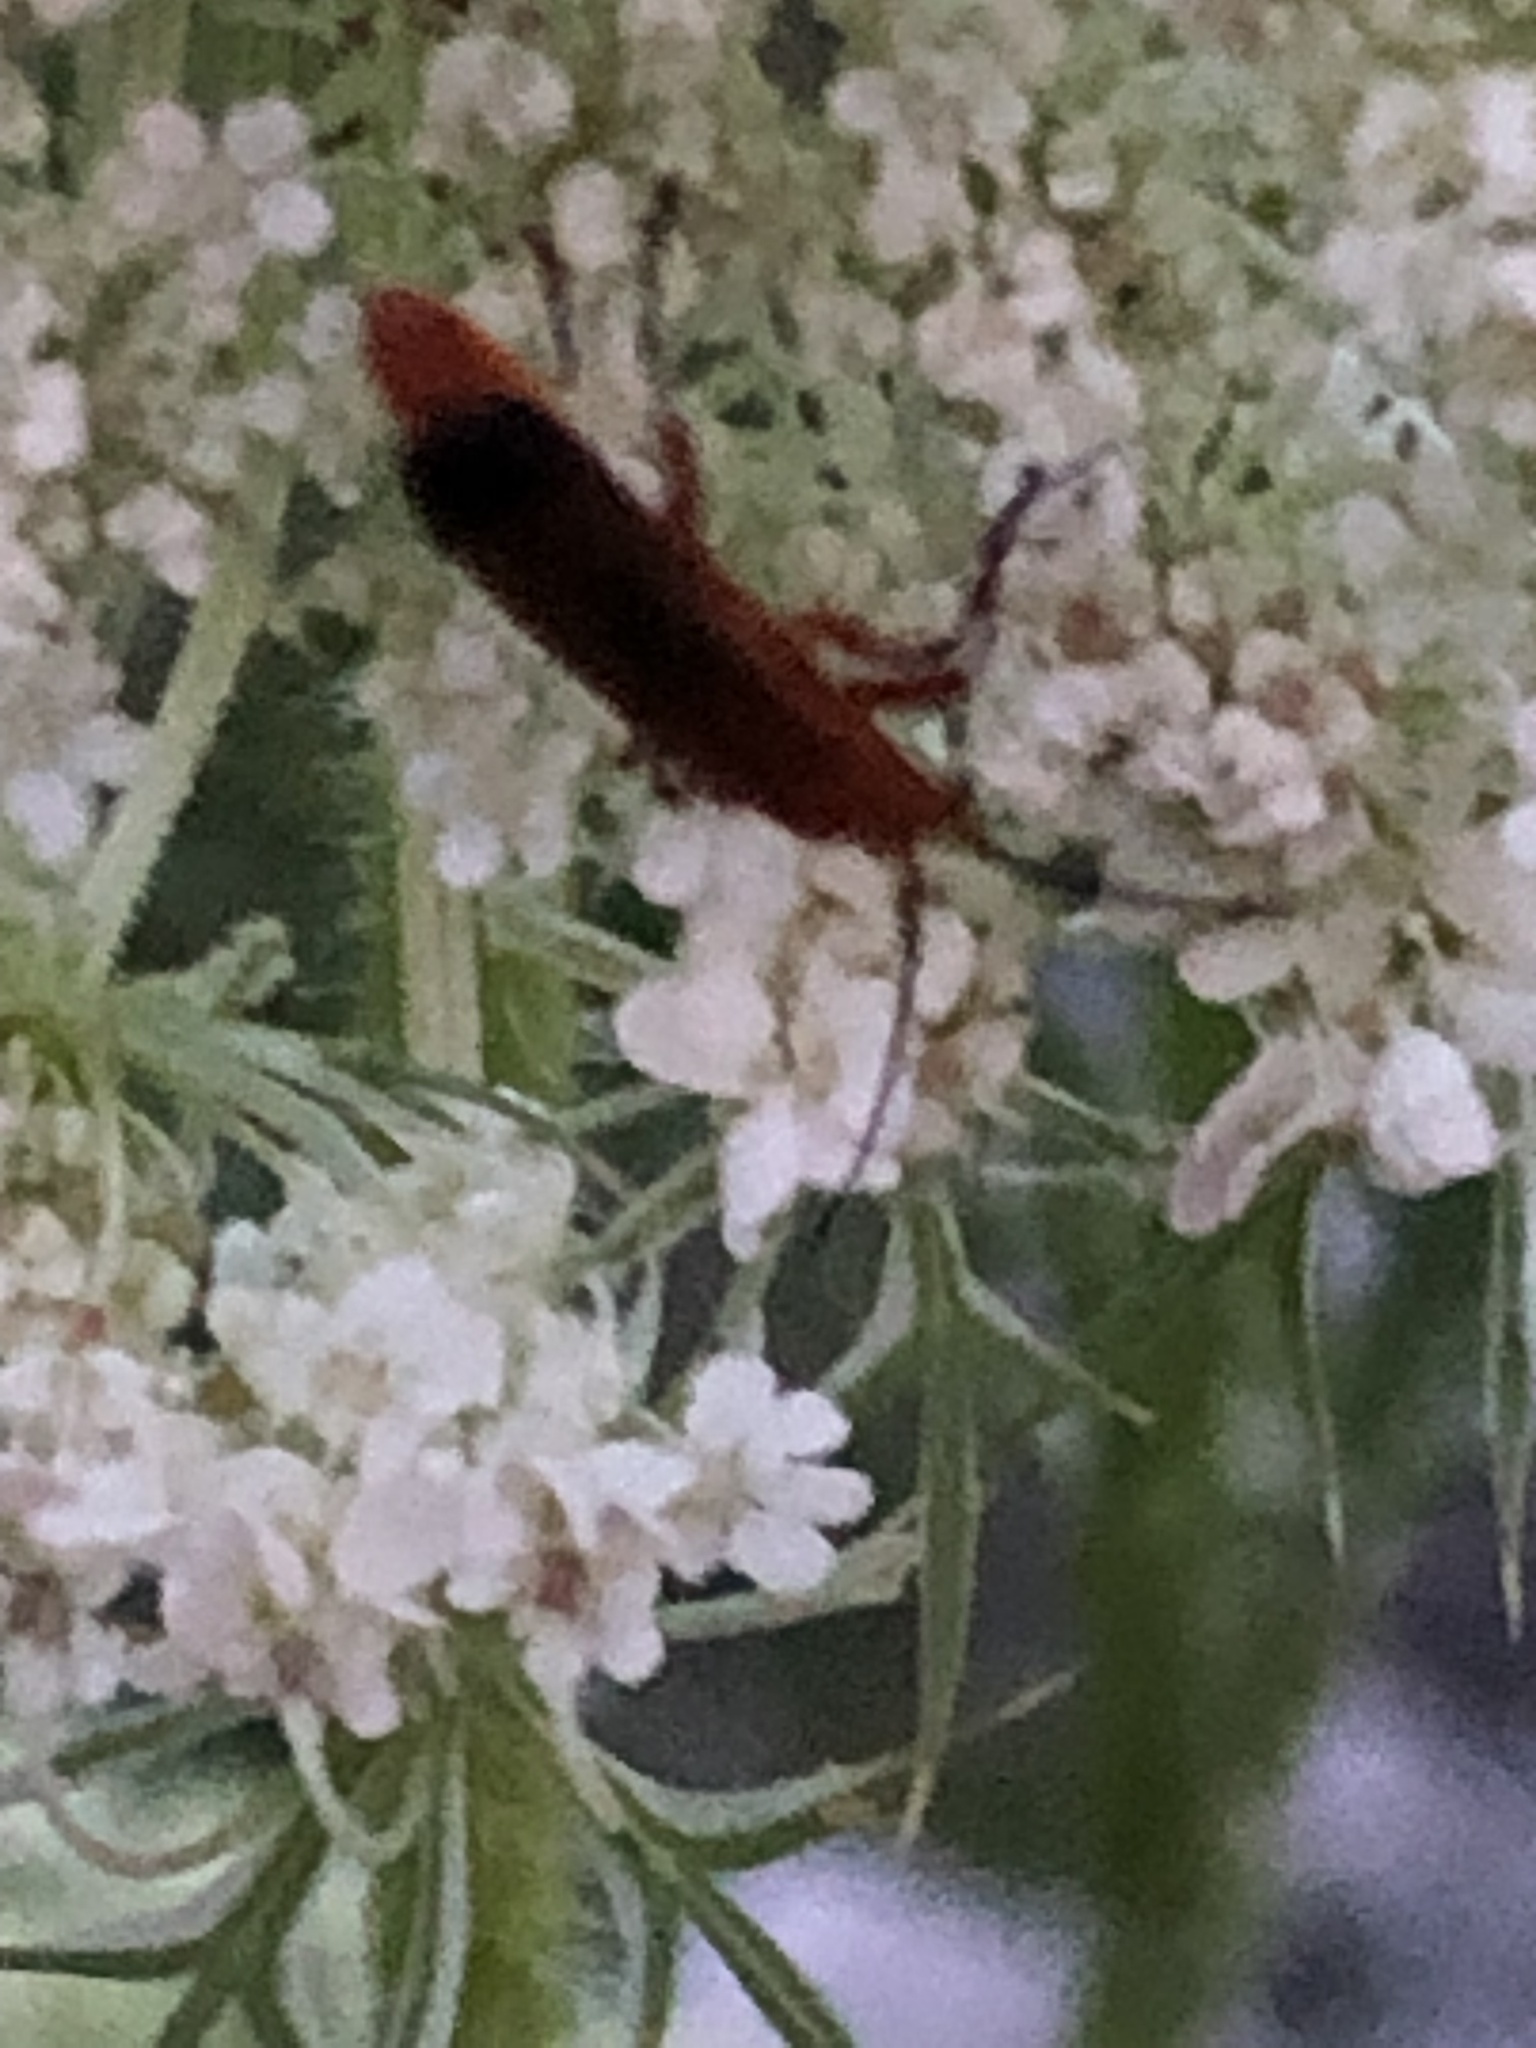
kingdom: Animalia
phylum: Arthropoda
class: Insecta
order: Coleoptera
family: Cantharidae
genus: Rhagonycha
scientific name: Rhagonycha fulva
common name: Common red soldier beetle
